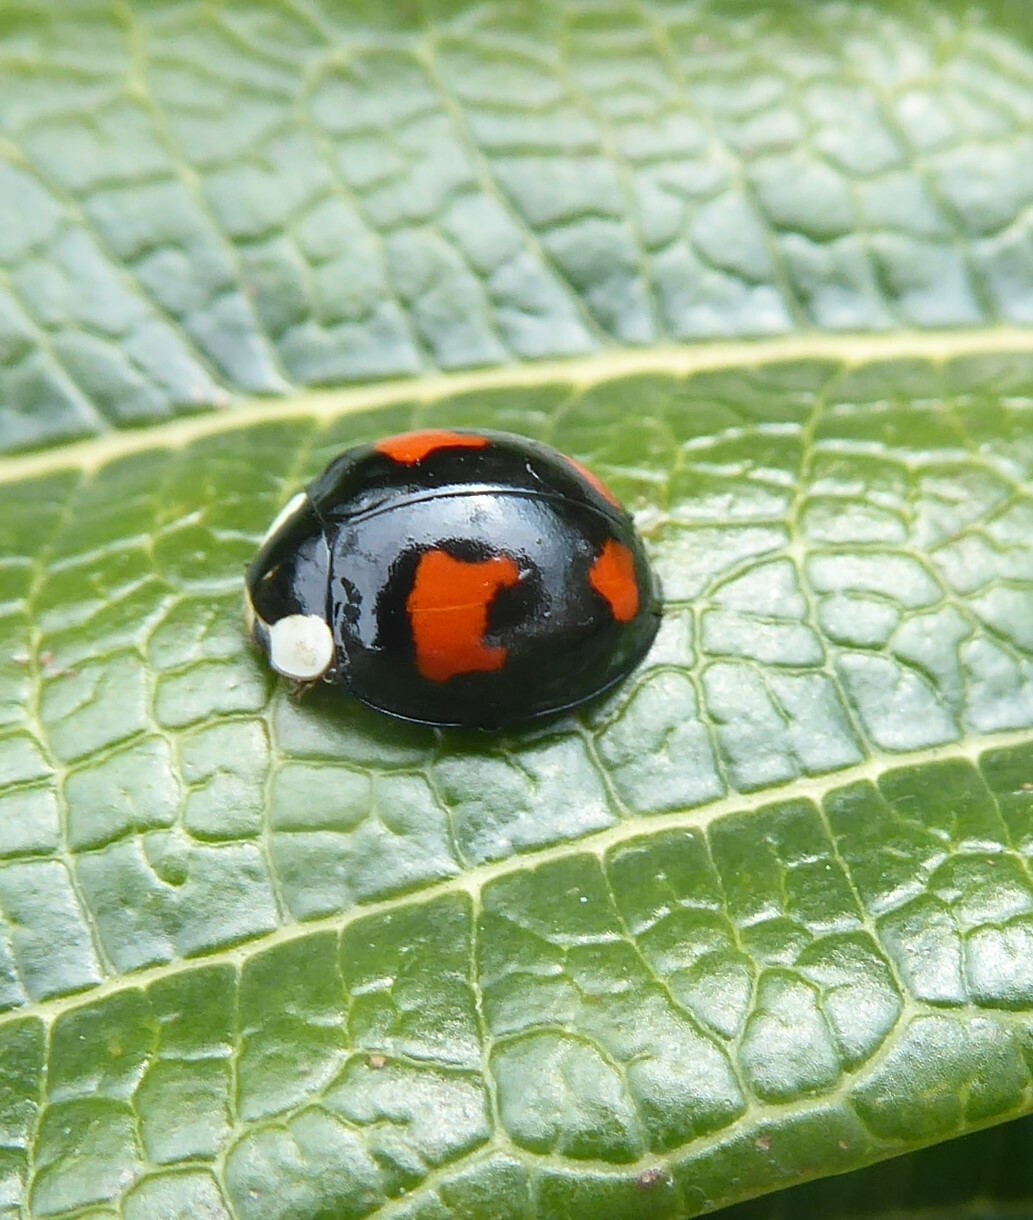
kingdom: Animalia
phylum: Arthropoda
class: Insecta
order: Coleoptera
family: Coccinellidae
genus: Harmonia
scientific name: Harmonia axyridis
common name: Harlequin ladybird
